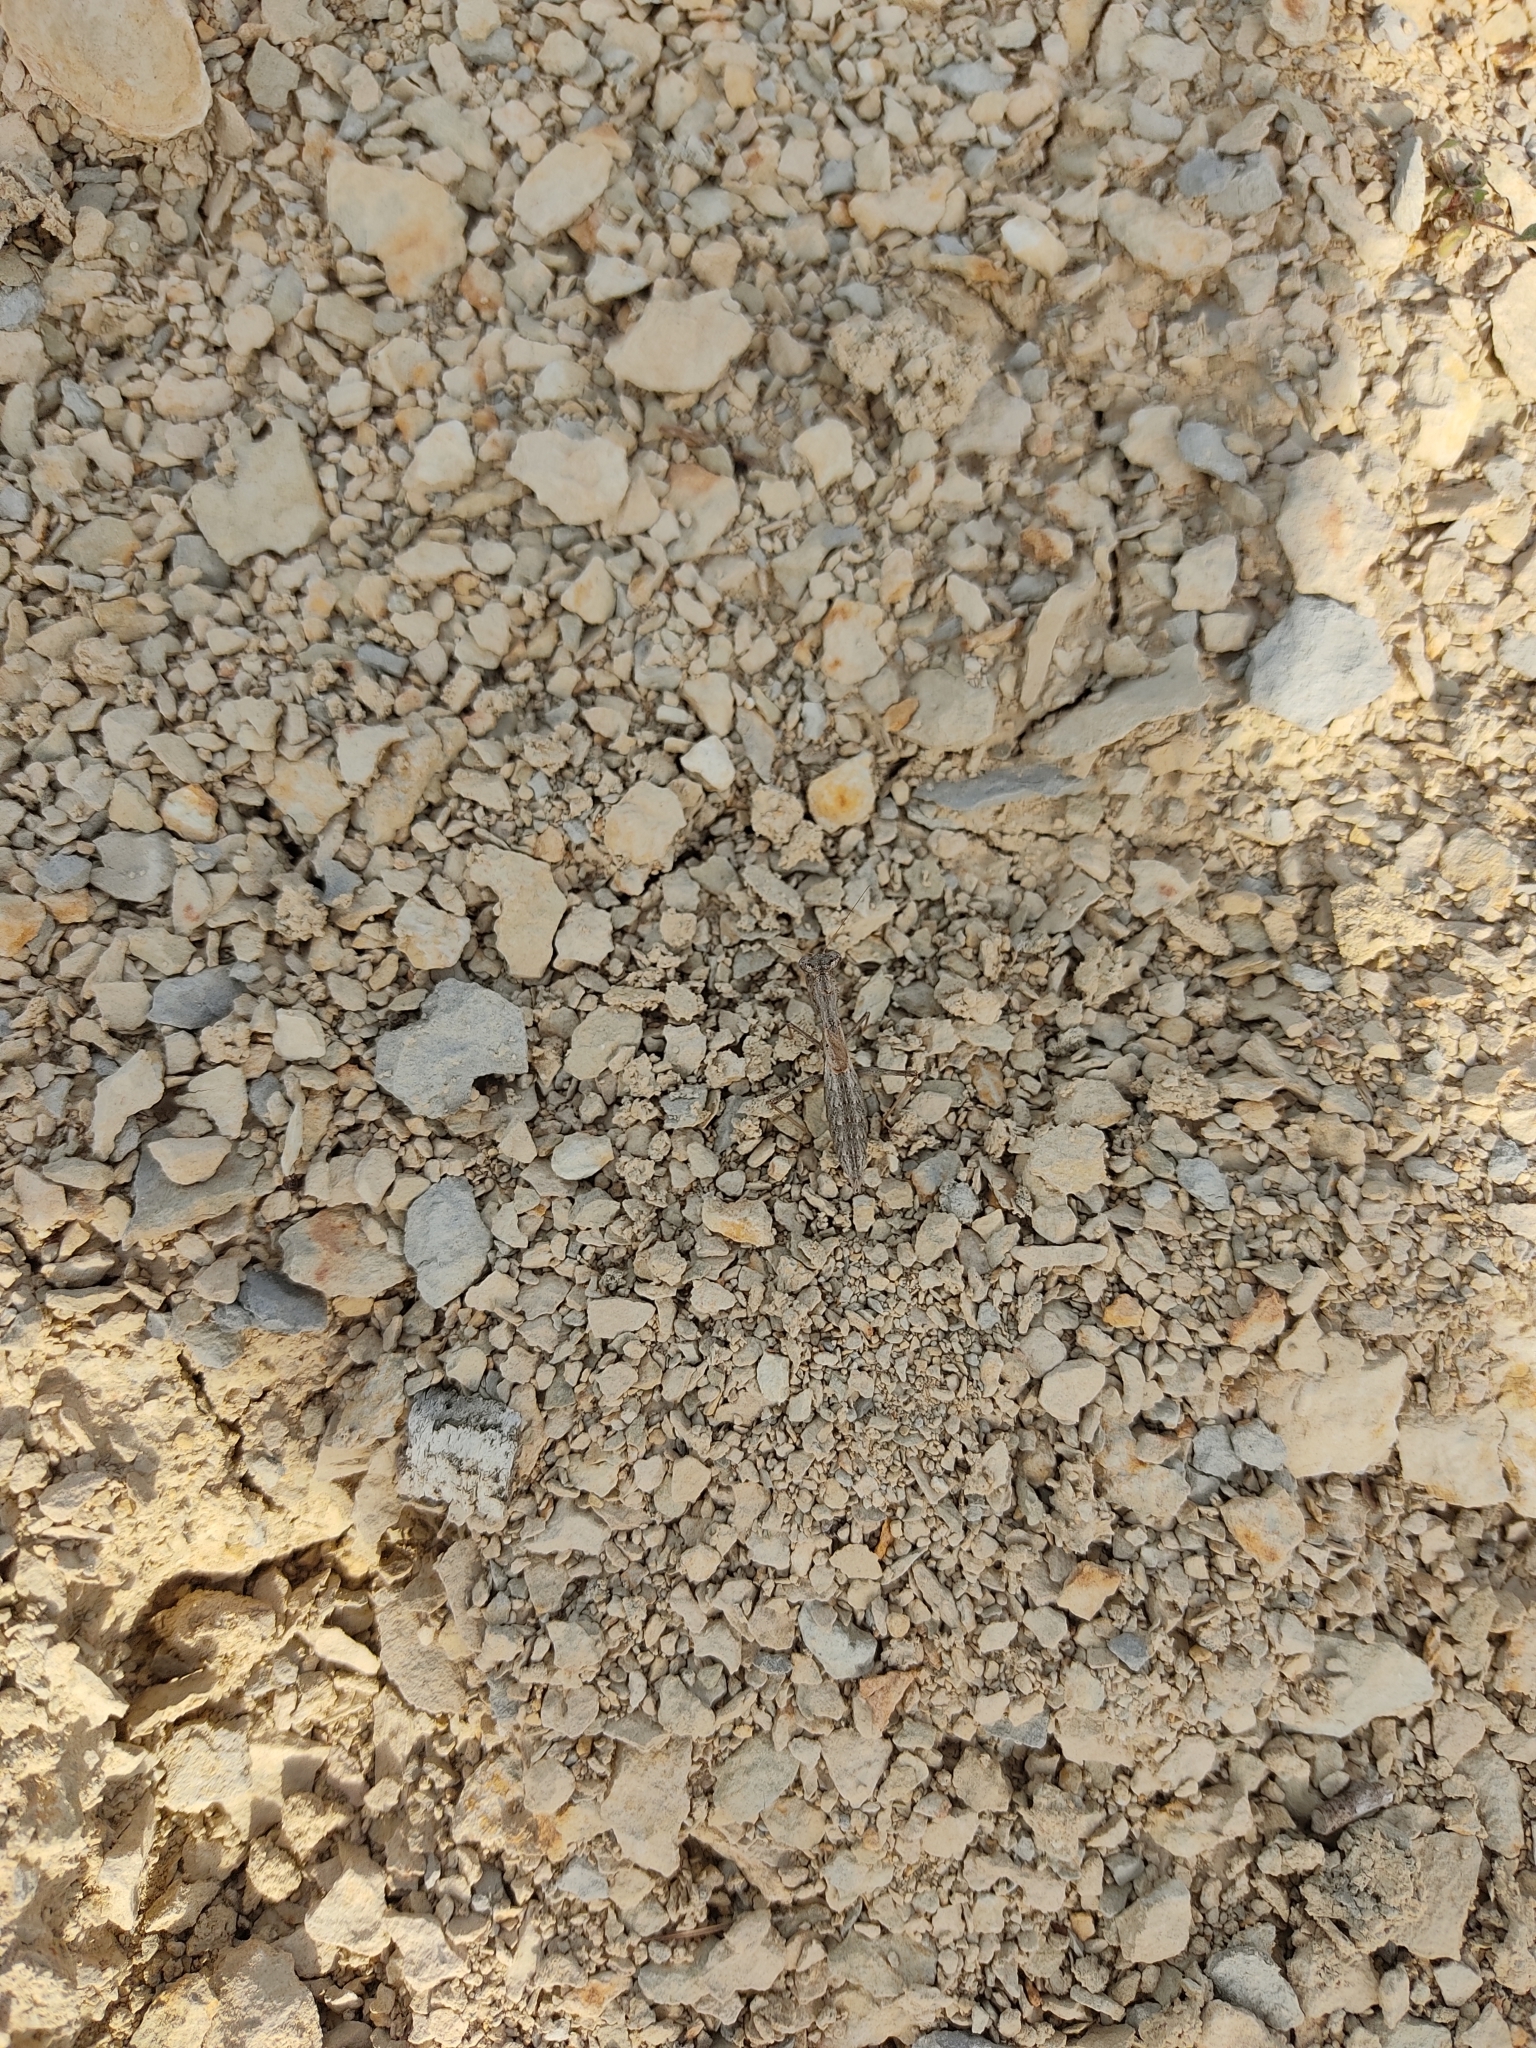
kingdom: Animalia
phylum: Arthropoda
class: Insecta
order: Mantodea
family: Amelidae
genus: Ameles
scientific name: Ameles decolor
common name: Dwarf mantis
